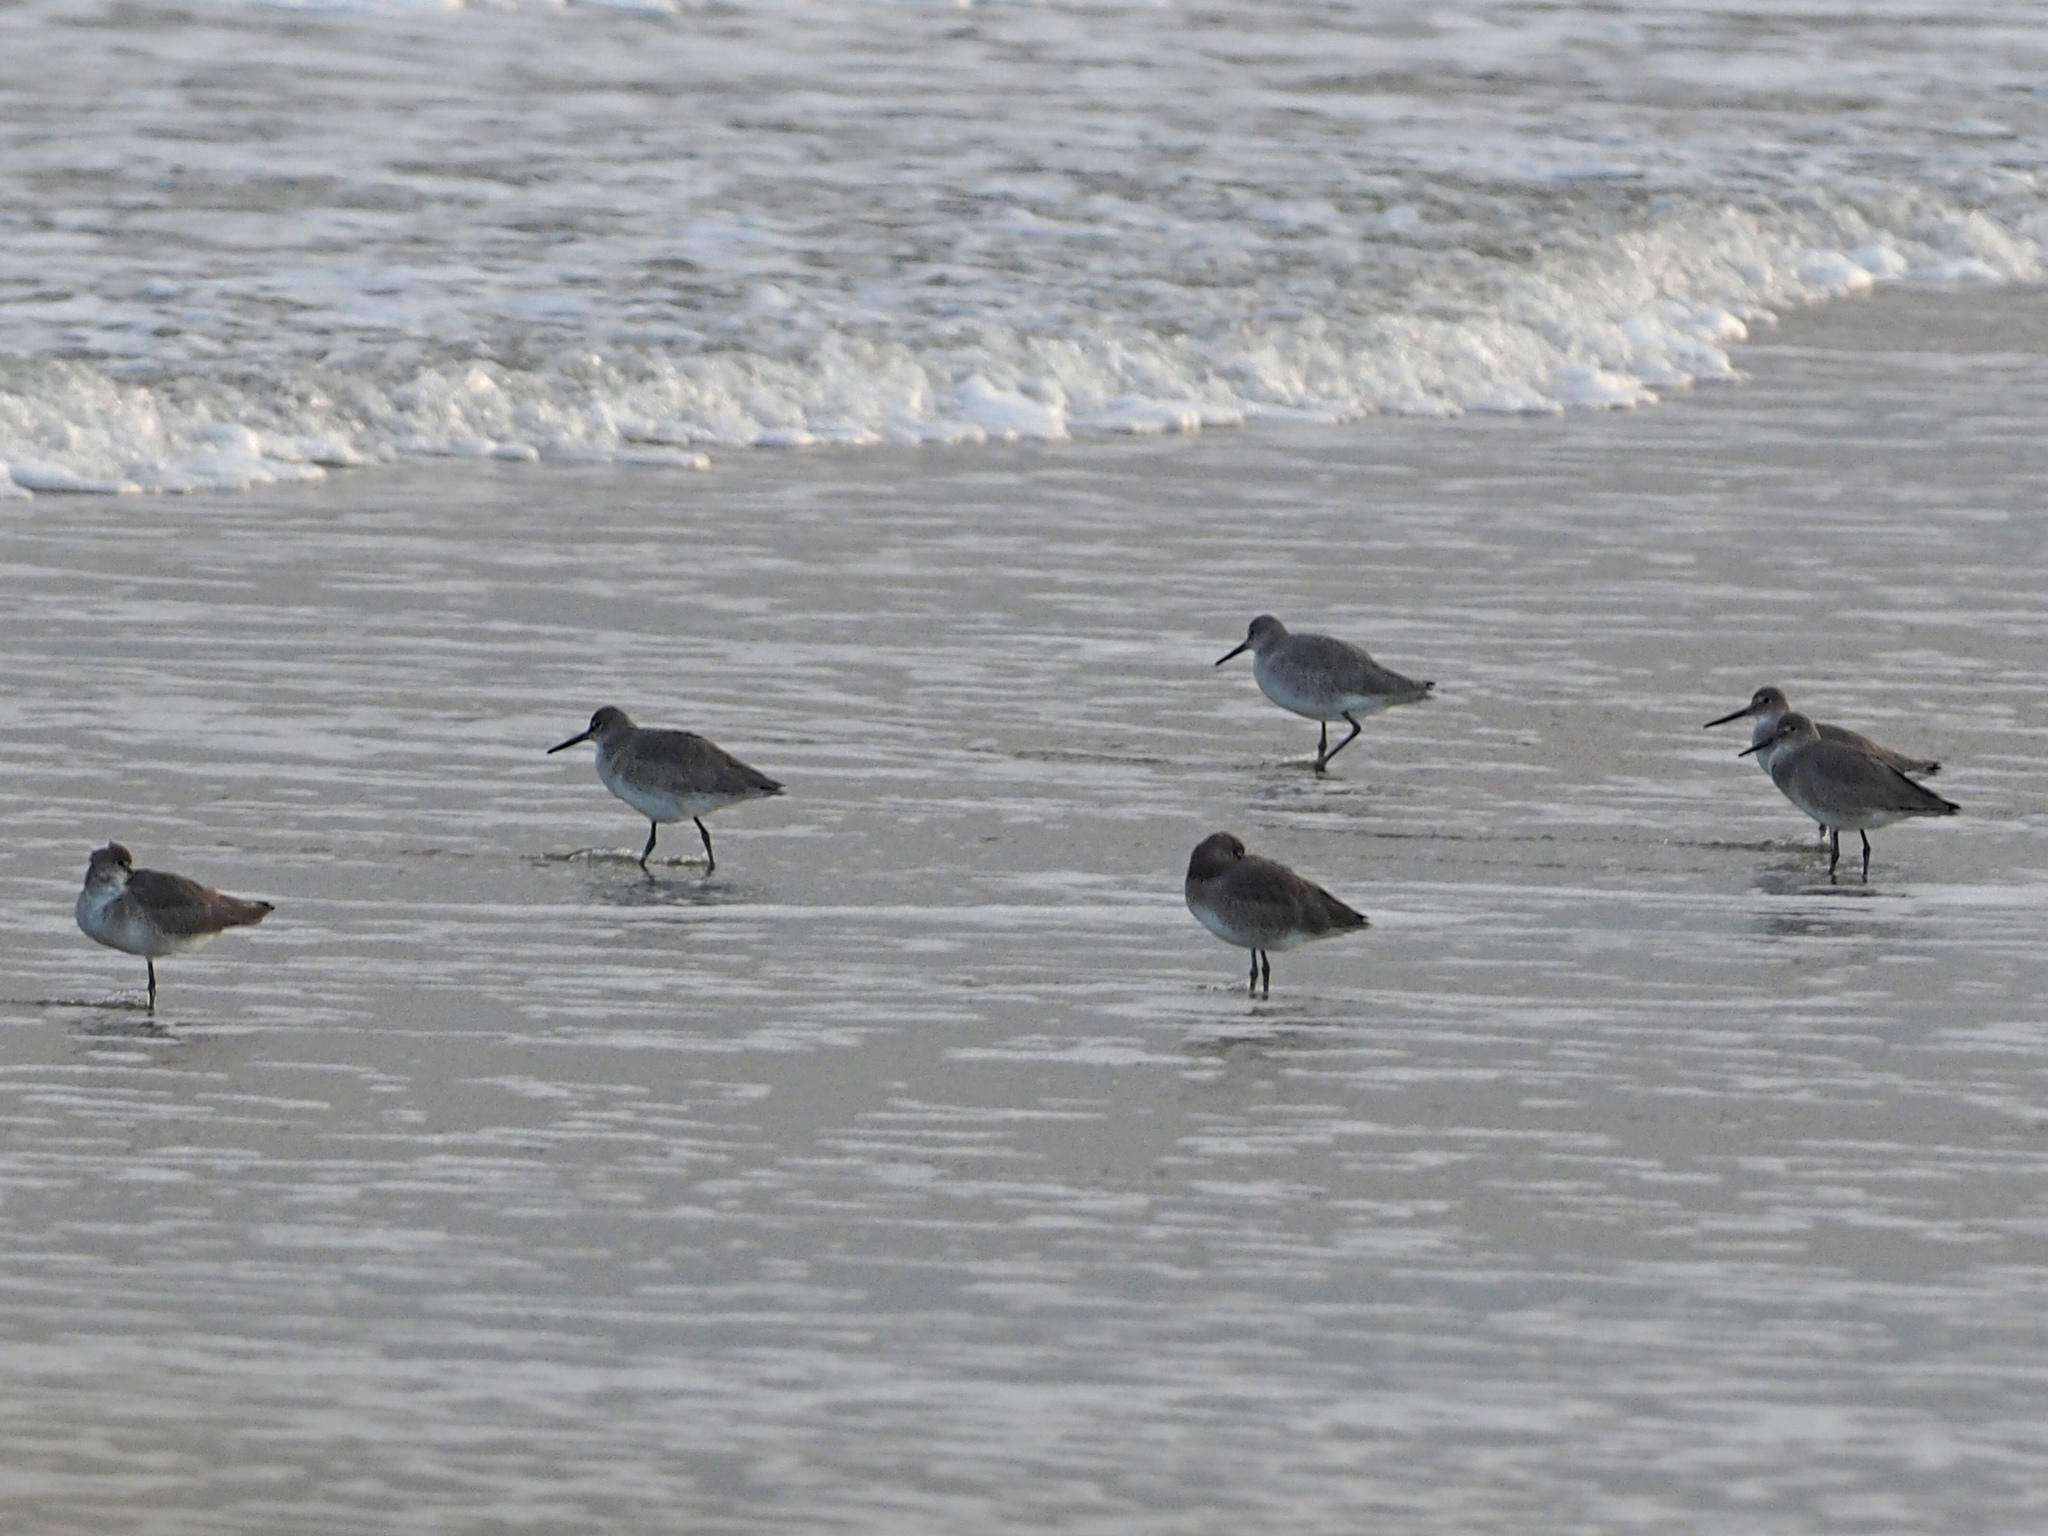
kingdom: Animalia
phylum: Chordata
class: Aves
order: Charadriiformes
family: Scolopacidae
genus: Tringa
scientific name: Tringa semipalmata
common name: Willet
